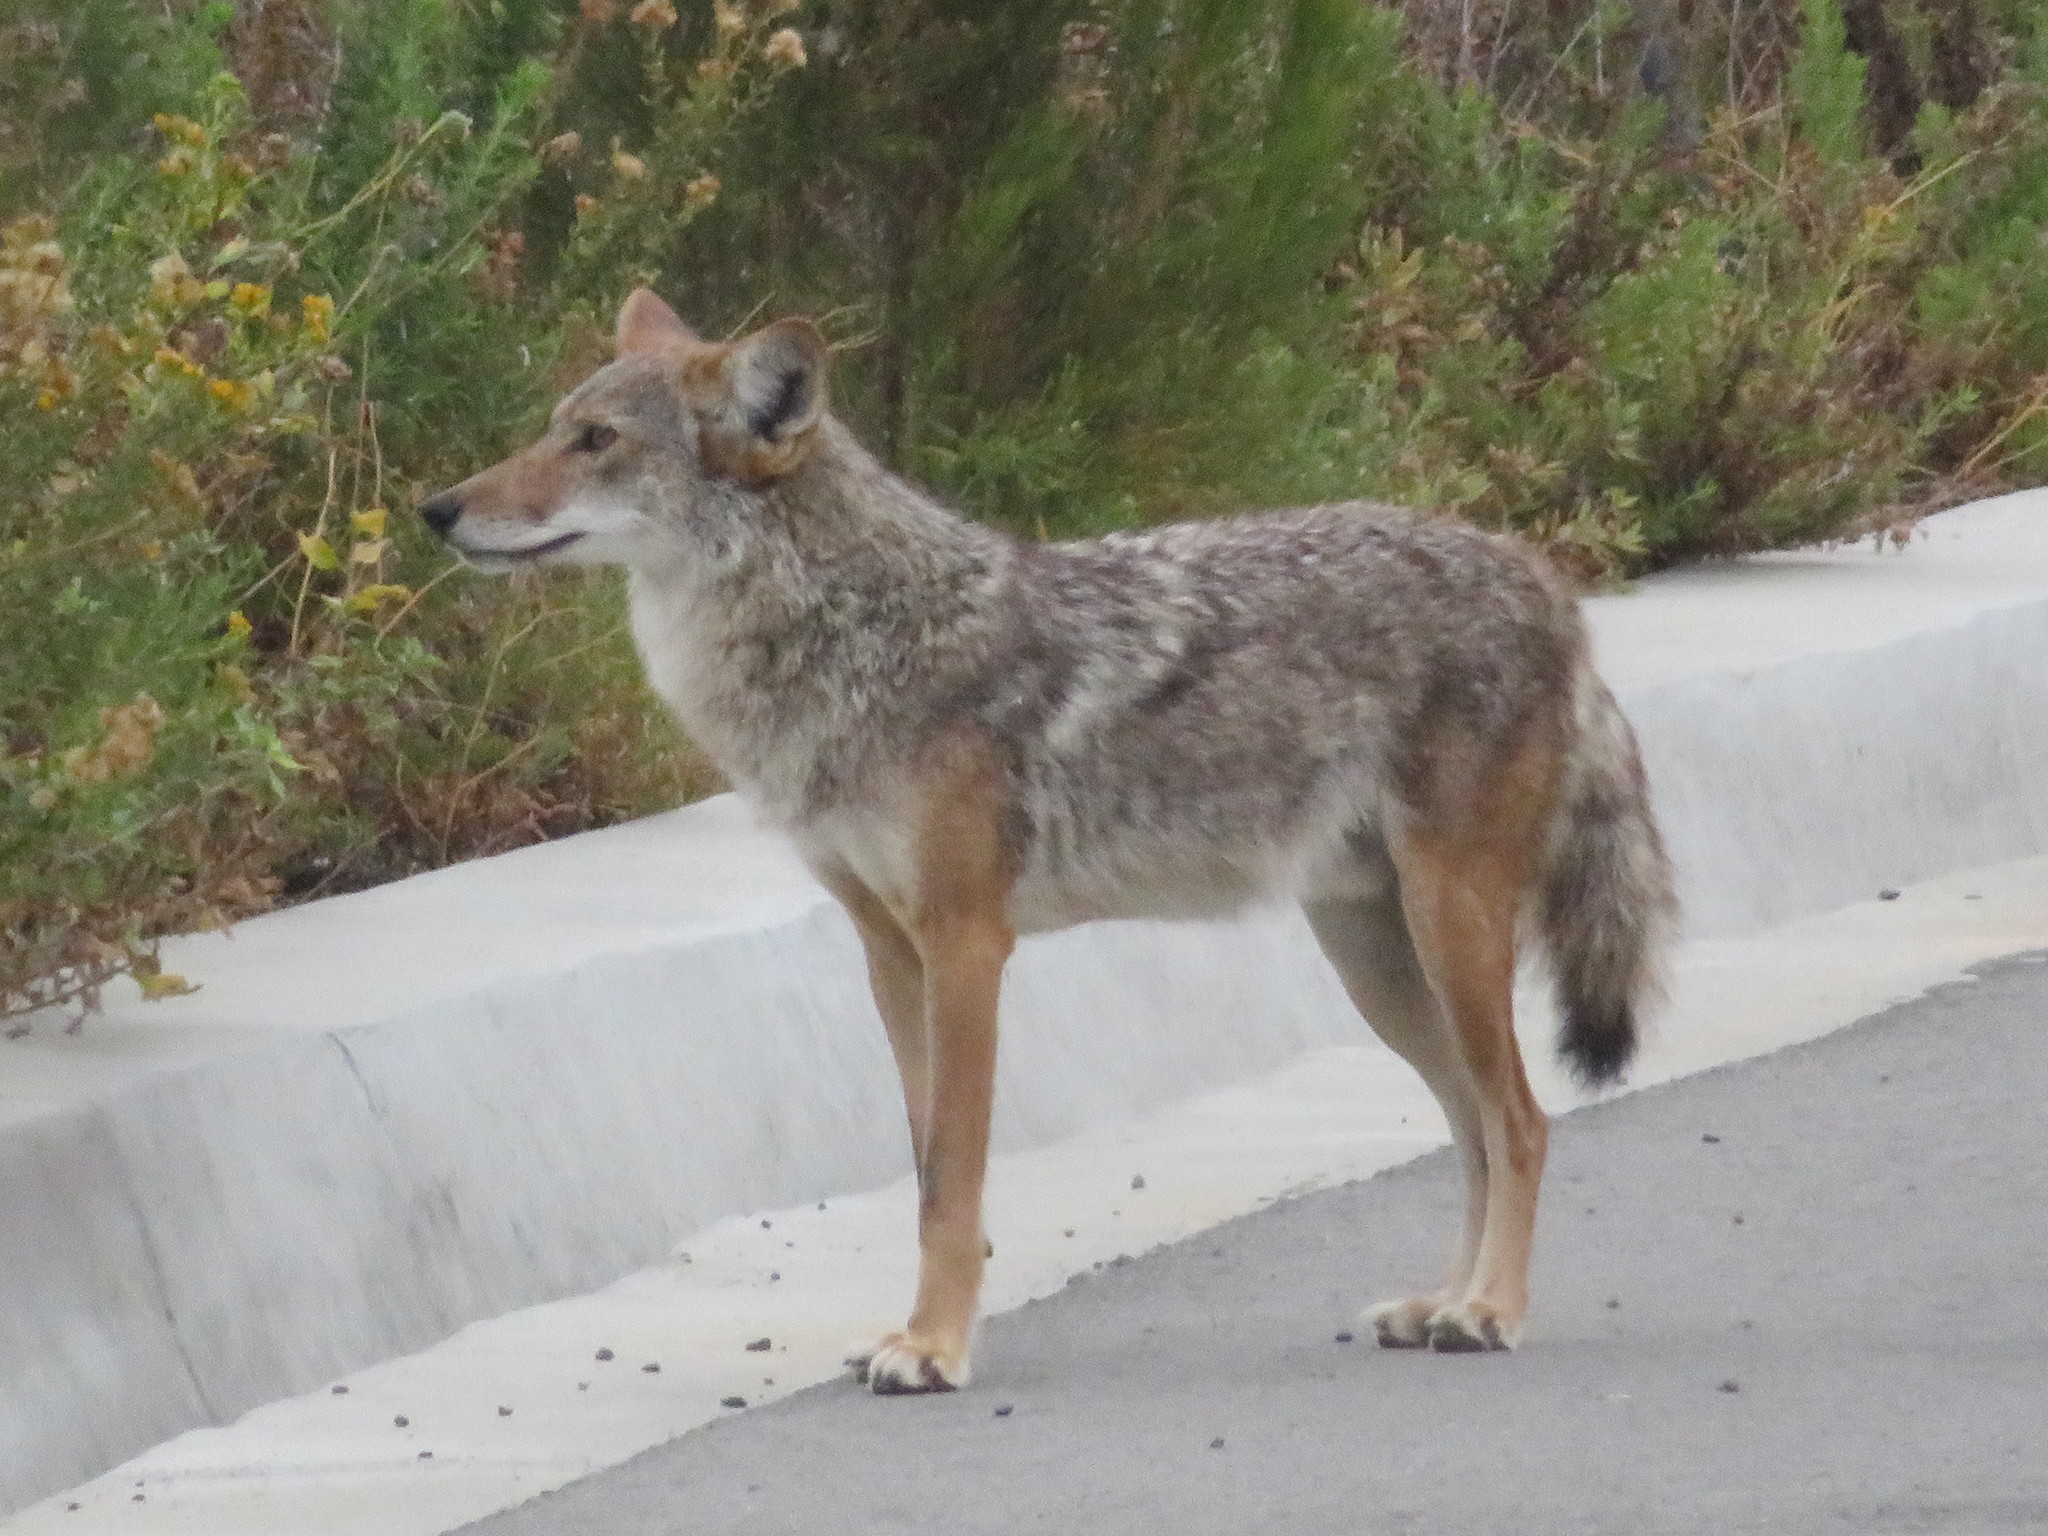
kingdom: Animalia
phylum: Chordata
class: Mammalia
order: Carnivora
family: Canidae
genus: Canis
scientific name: Canis latrans
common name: Coyote
